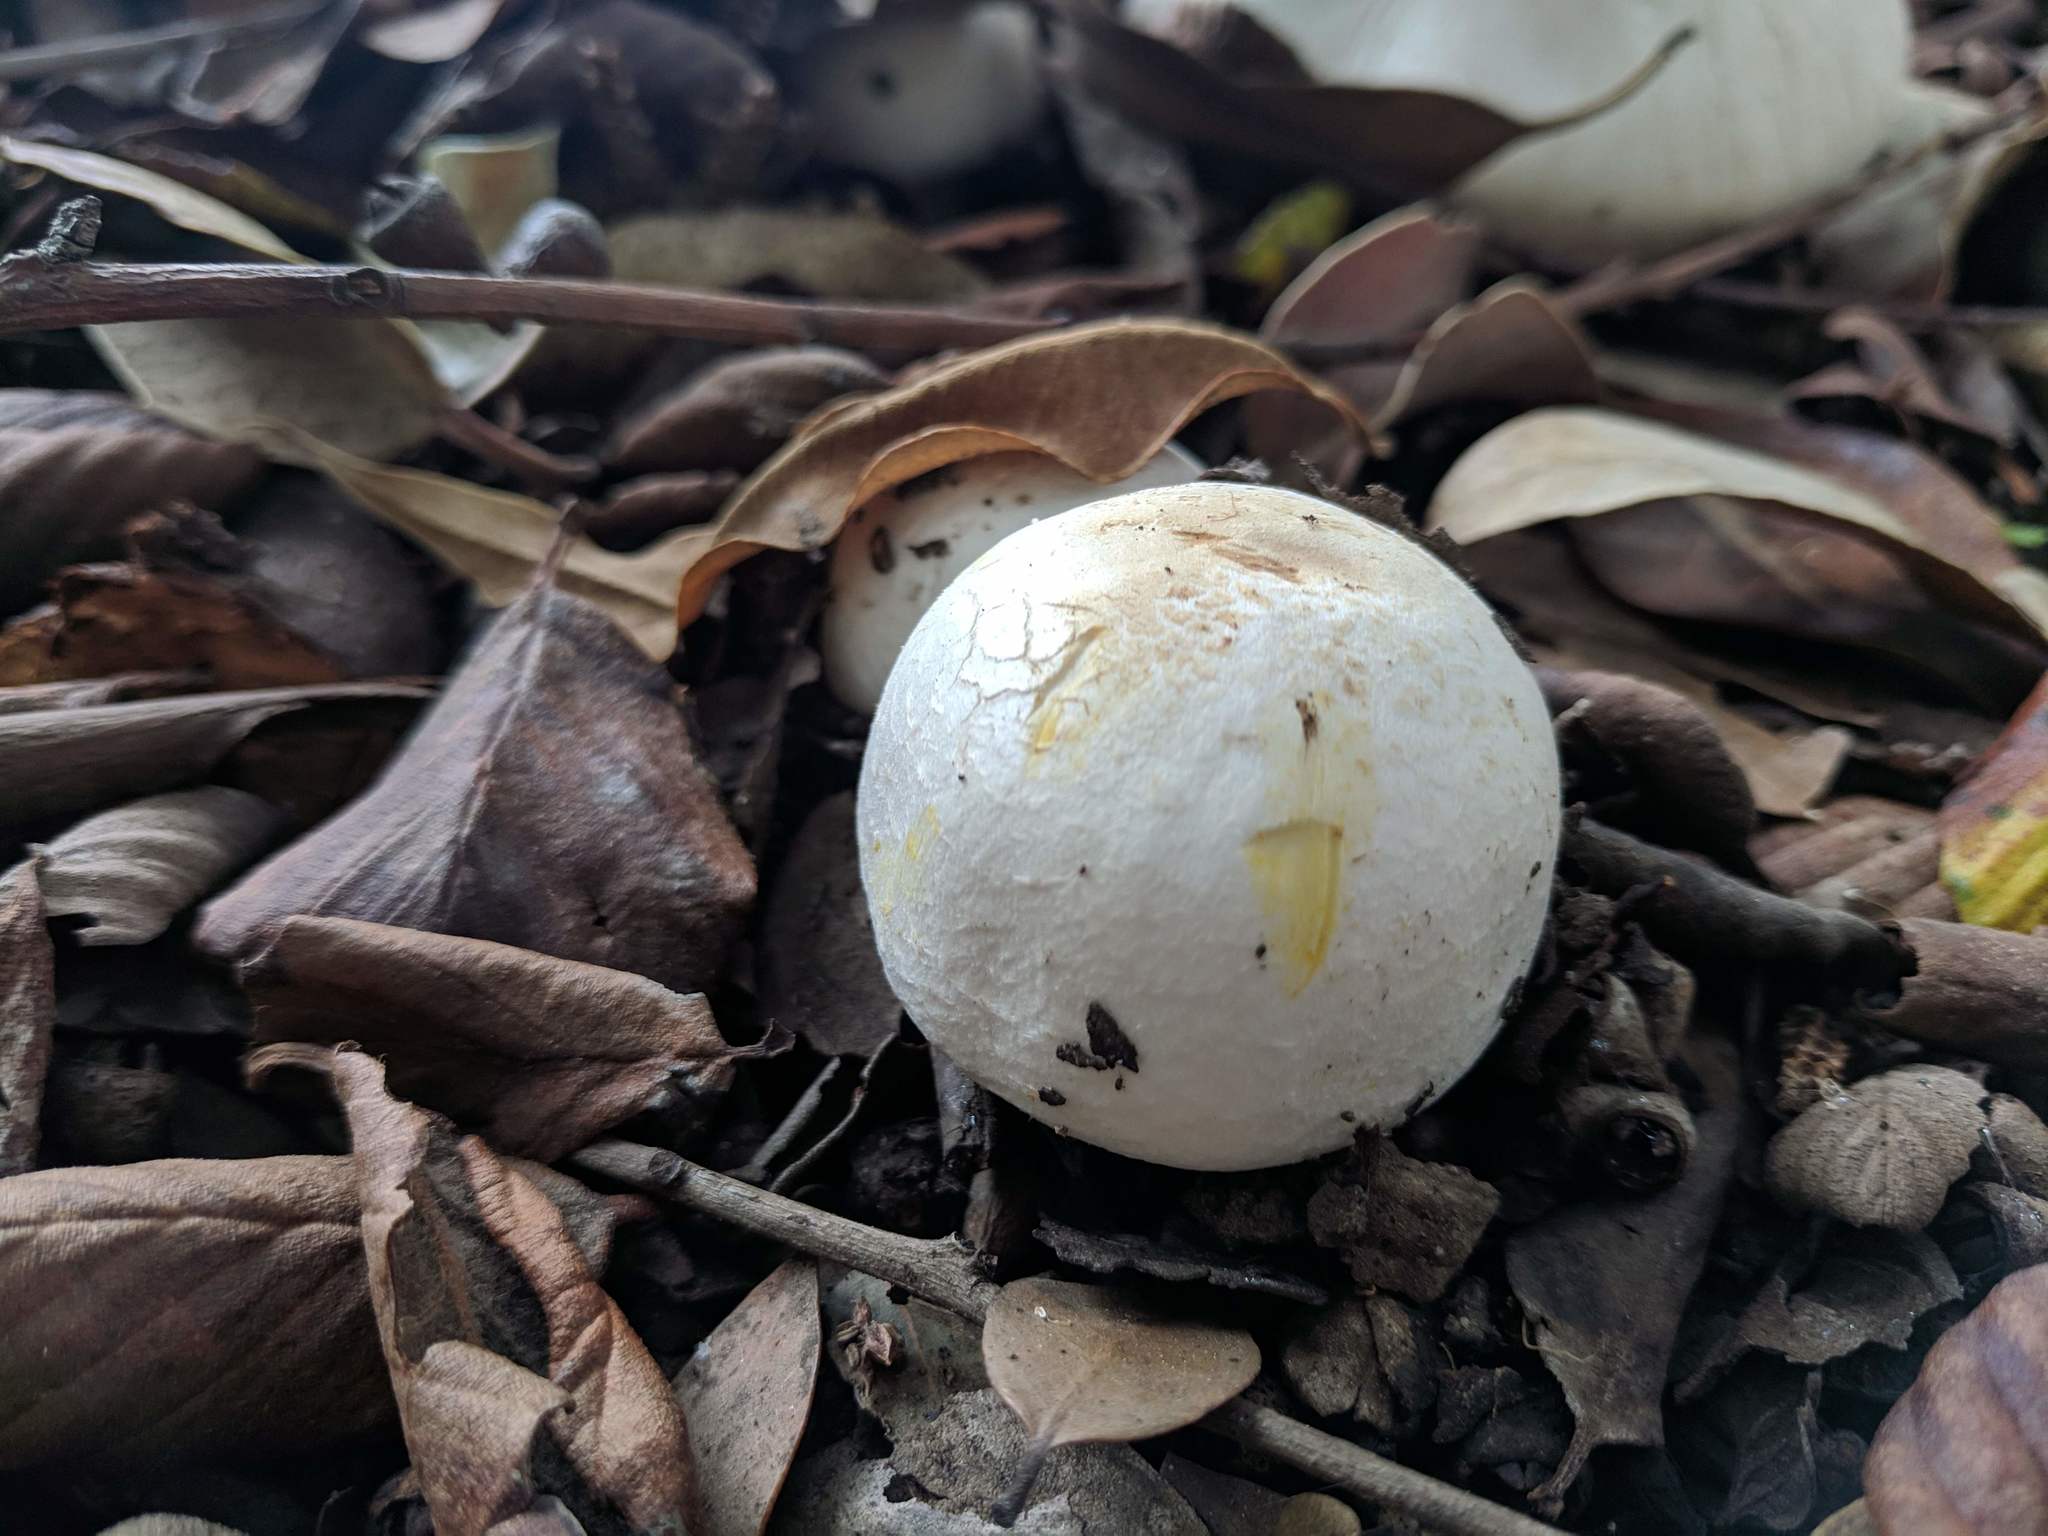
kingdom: Fungi
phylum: Basidiomycota
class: Agaricomycetes
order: Agaricales
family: Agaricaceae
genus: Agaricus
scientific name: Agaricus xanthodermus
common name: Yellow stainer
